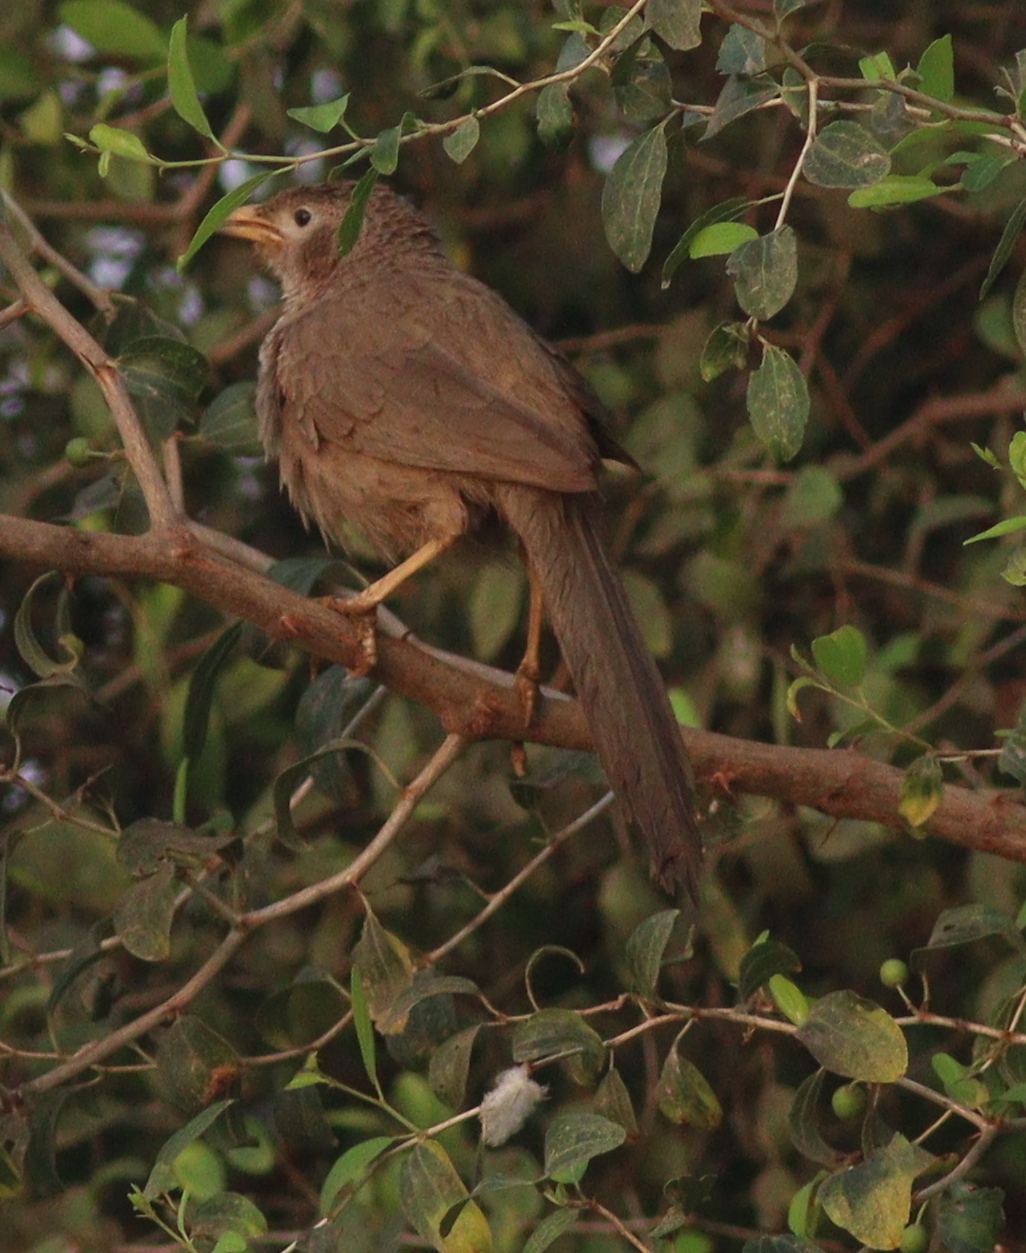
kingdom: Animalia
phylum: Chordata
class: Aves
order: Passeriformes
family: Leiothrichidae
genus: Turdoides
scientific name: Turdoides squamiceps
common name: Arabian babbler
